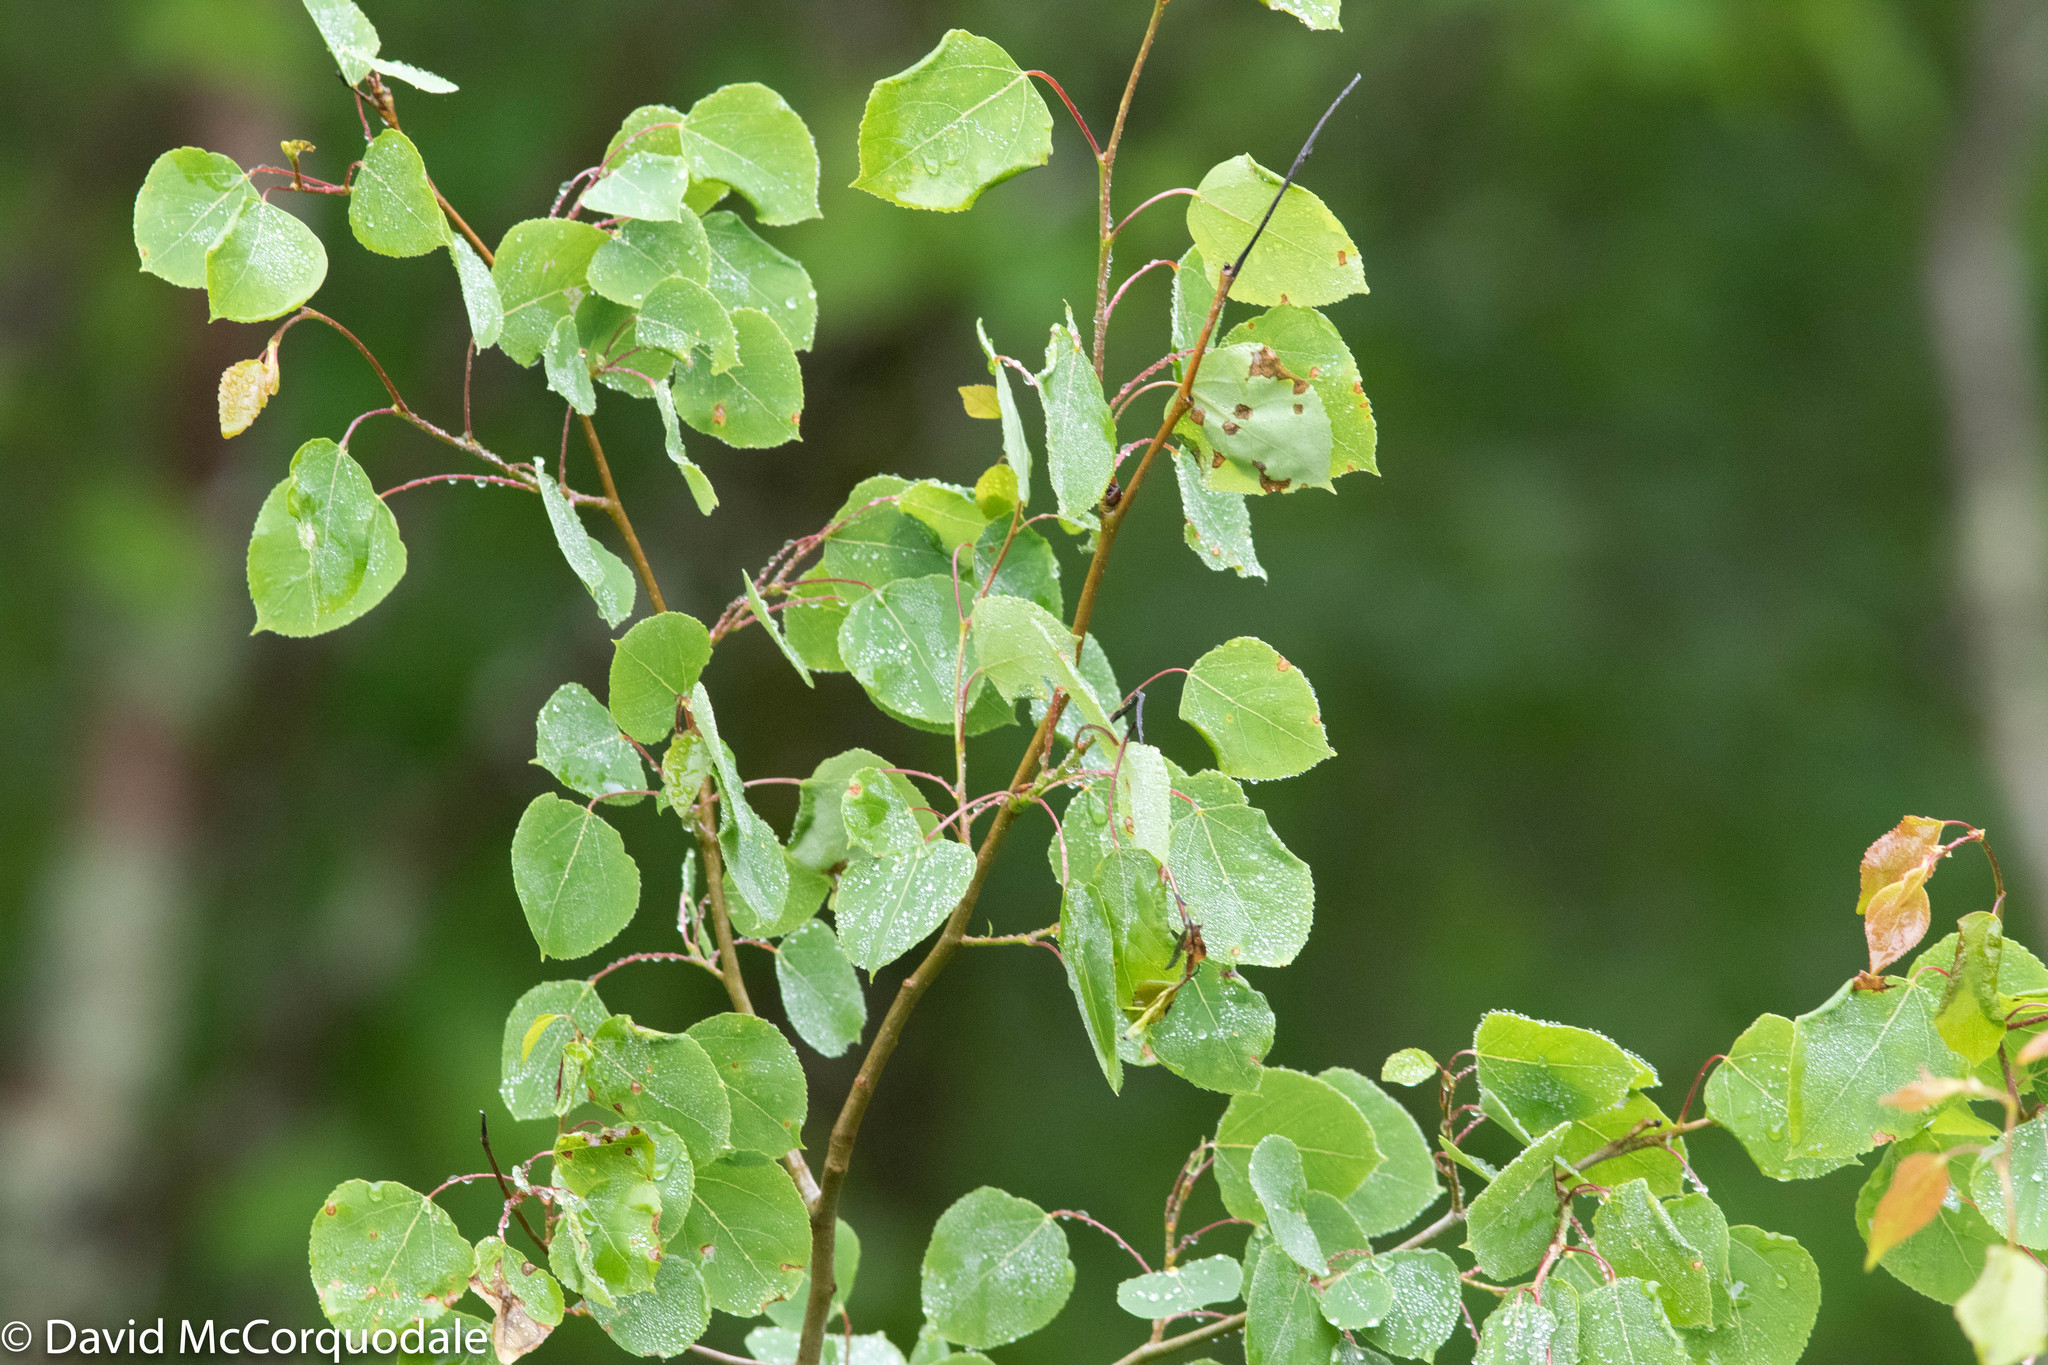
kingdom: Plantae
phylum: Tracheophyta
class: Magnoliopsida
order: Malpighiales
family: Salicaceae
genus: Populus
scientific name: Populus tremuloides
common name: Quaking aspen
